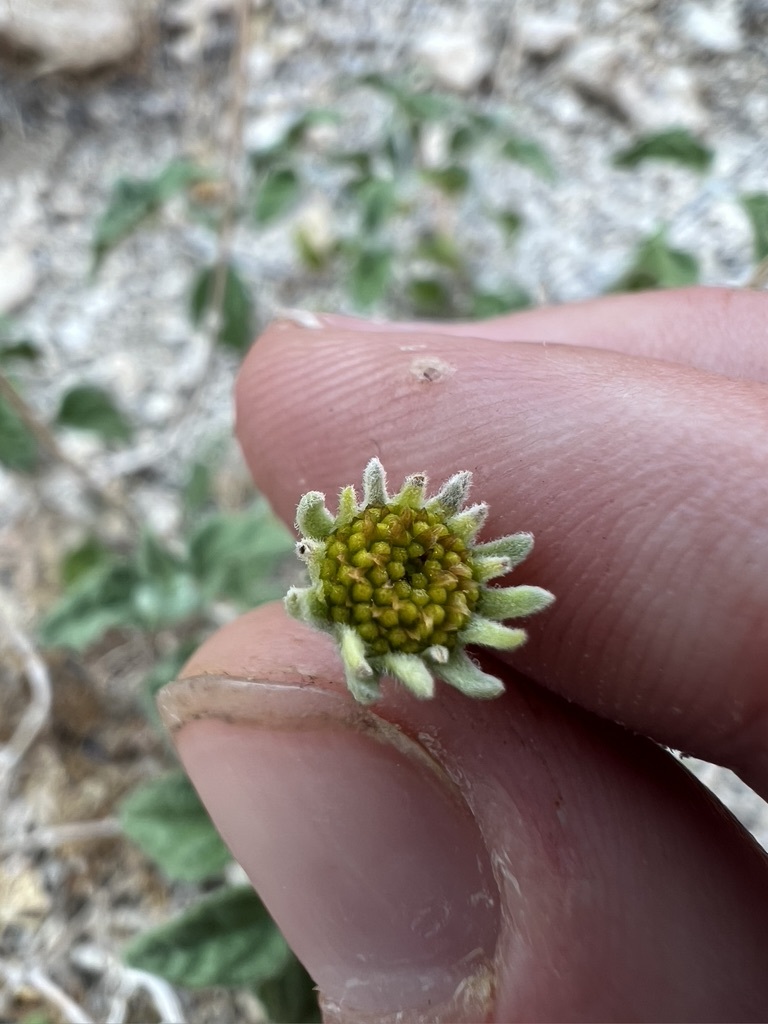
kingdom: Plantae
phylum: Tracheophyta
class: Magnoliopsida
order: Asterales
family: Asteraceae
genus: Bahiopsis
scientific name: Bahiopsis parishii
